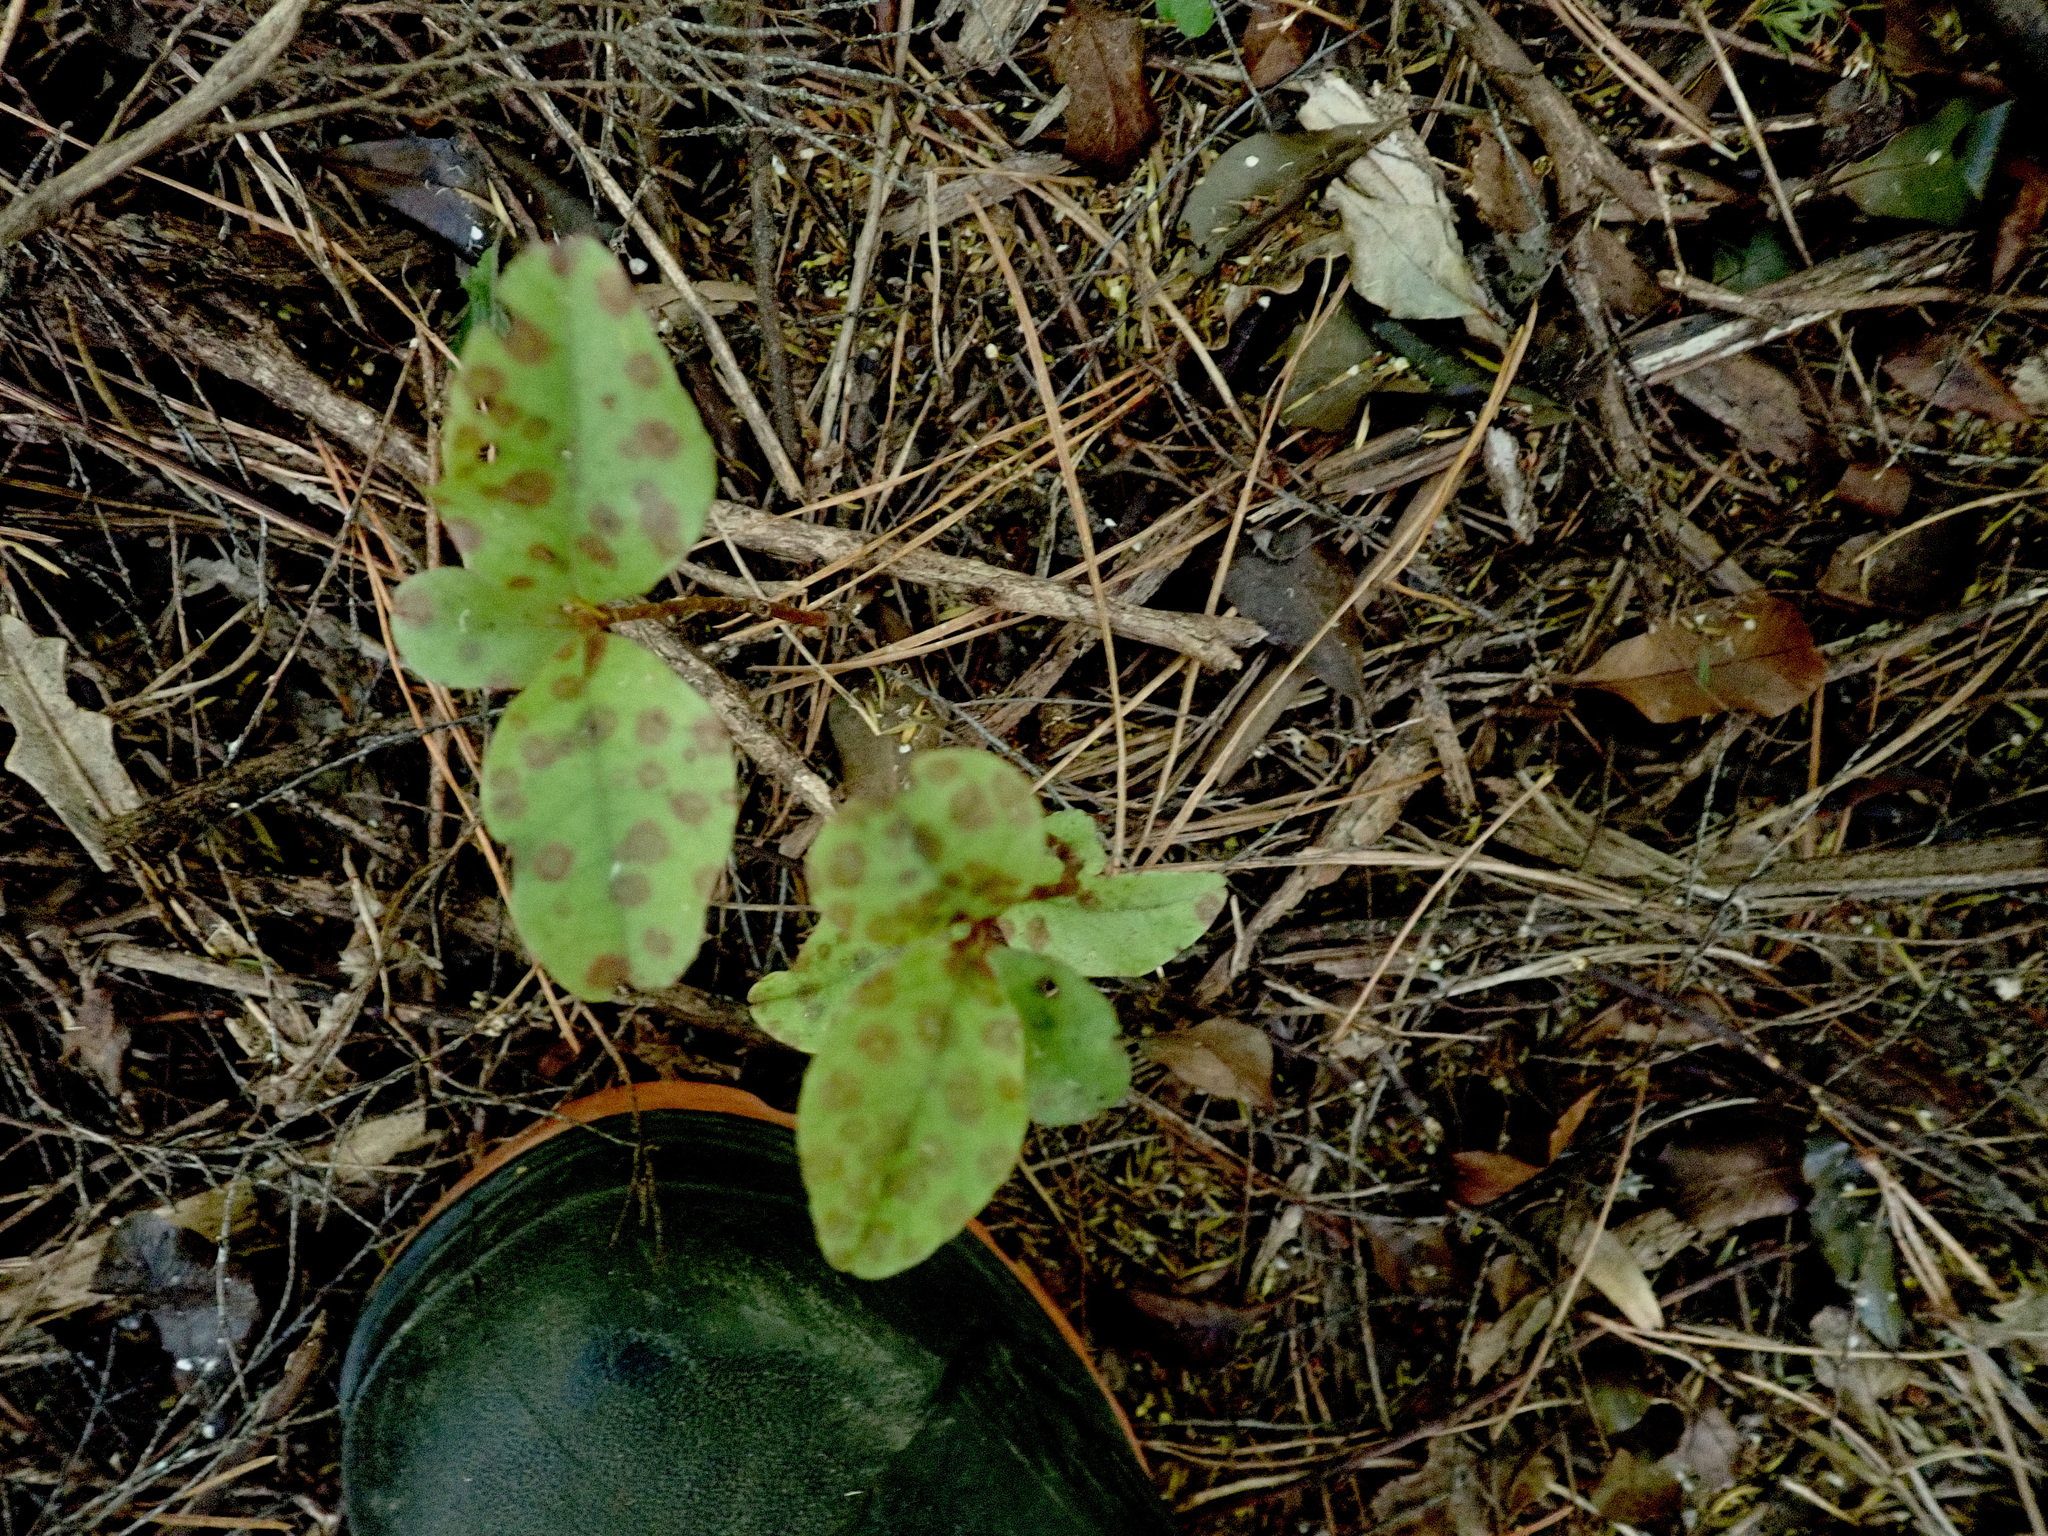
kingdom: Plantae
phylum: Tracheophyta
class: Magnoliopsida
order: Ericales
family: Primulaceae
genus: Myrsine
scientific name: Myrsine australis
